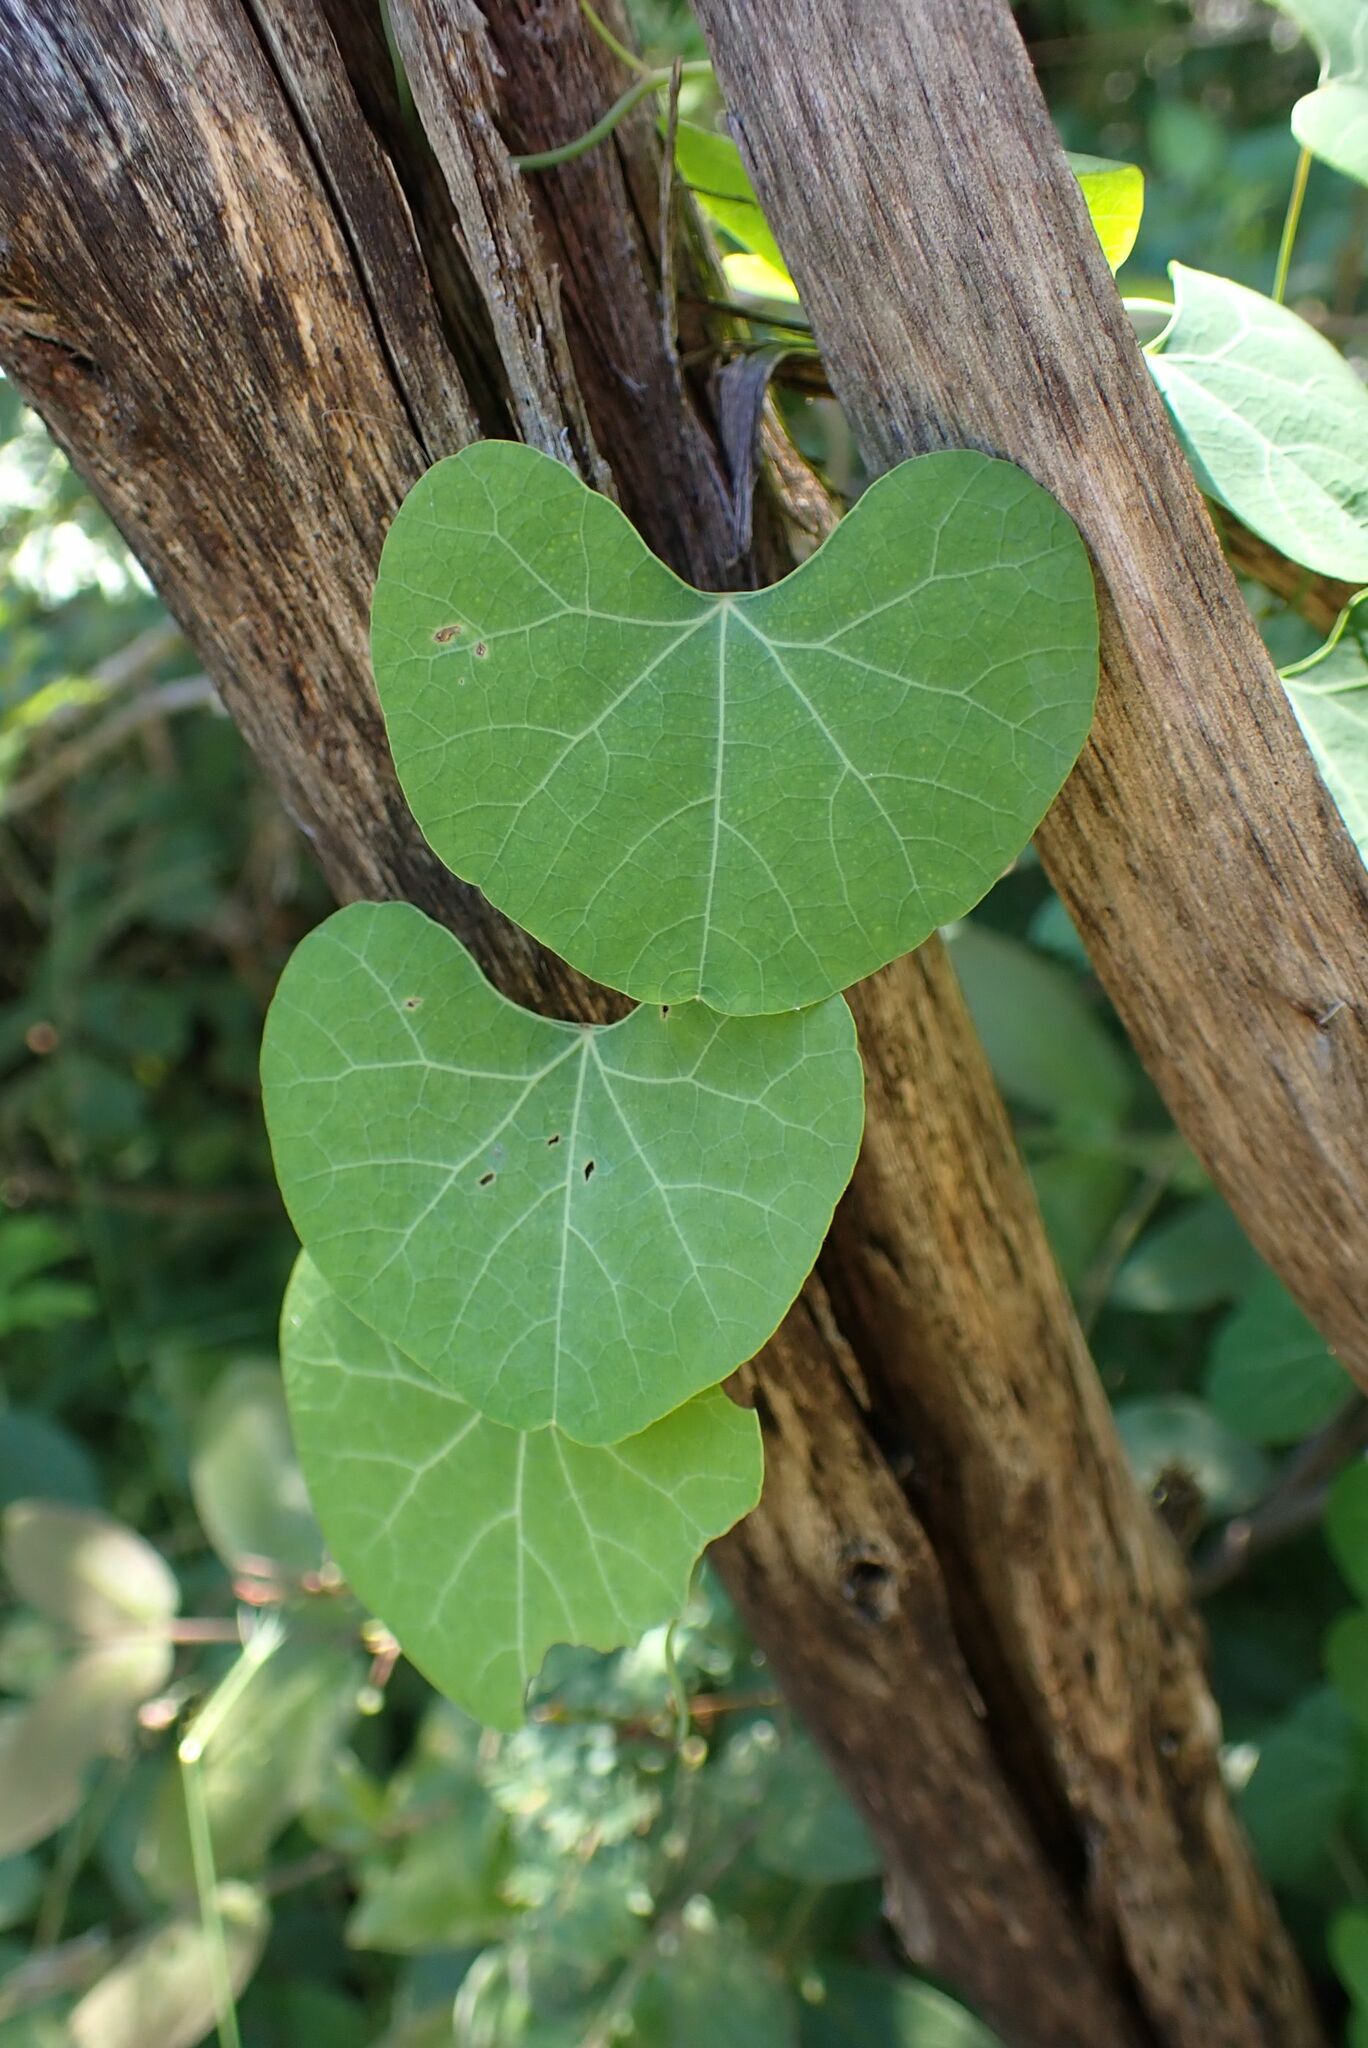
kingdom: Plantae
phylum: Tracheophyta
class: Magnoliopsida
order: Ranunculales
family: Menispermaceae
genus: Cissampelos
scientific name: Cissampelos torulosa
